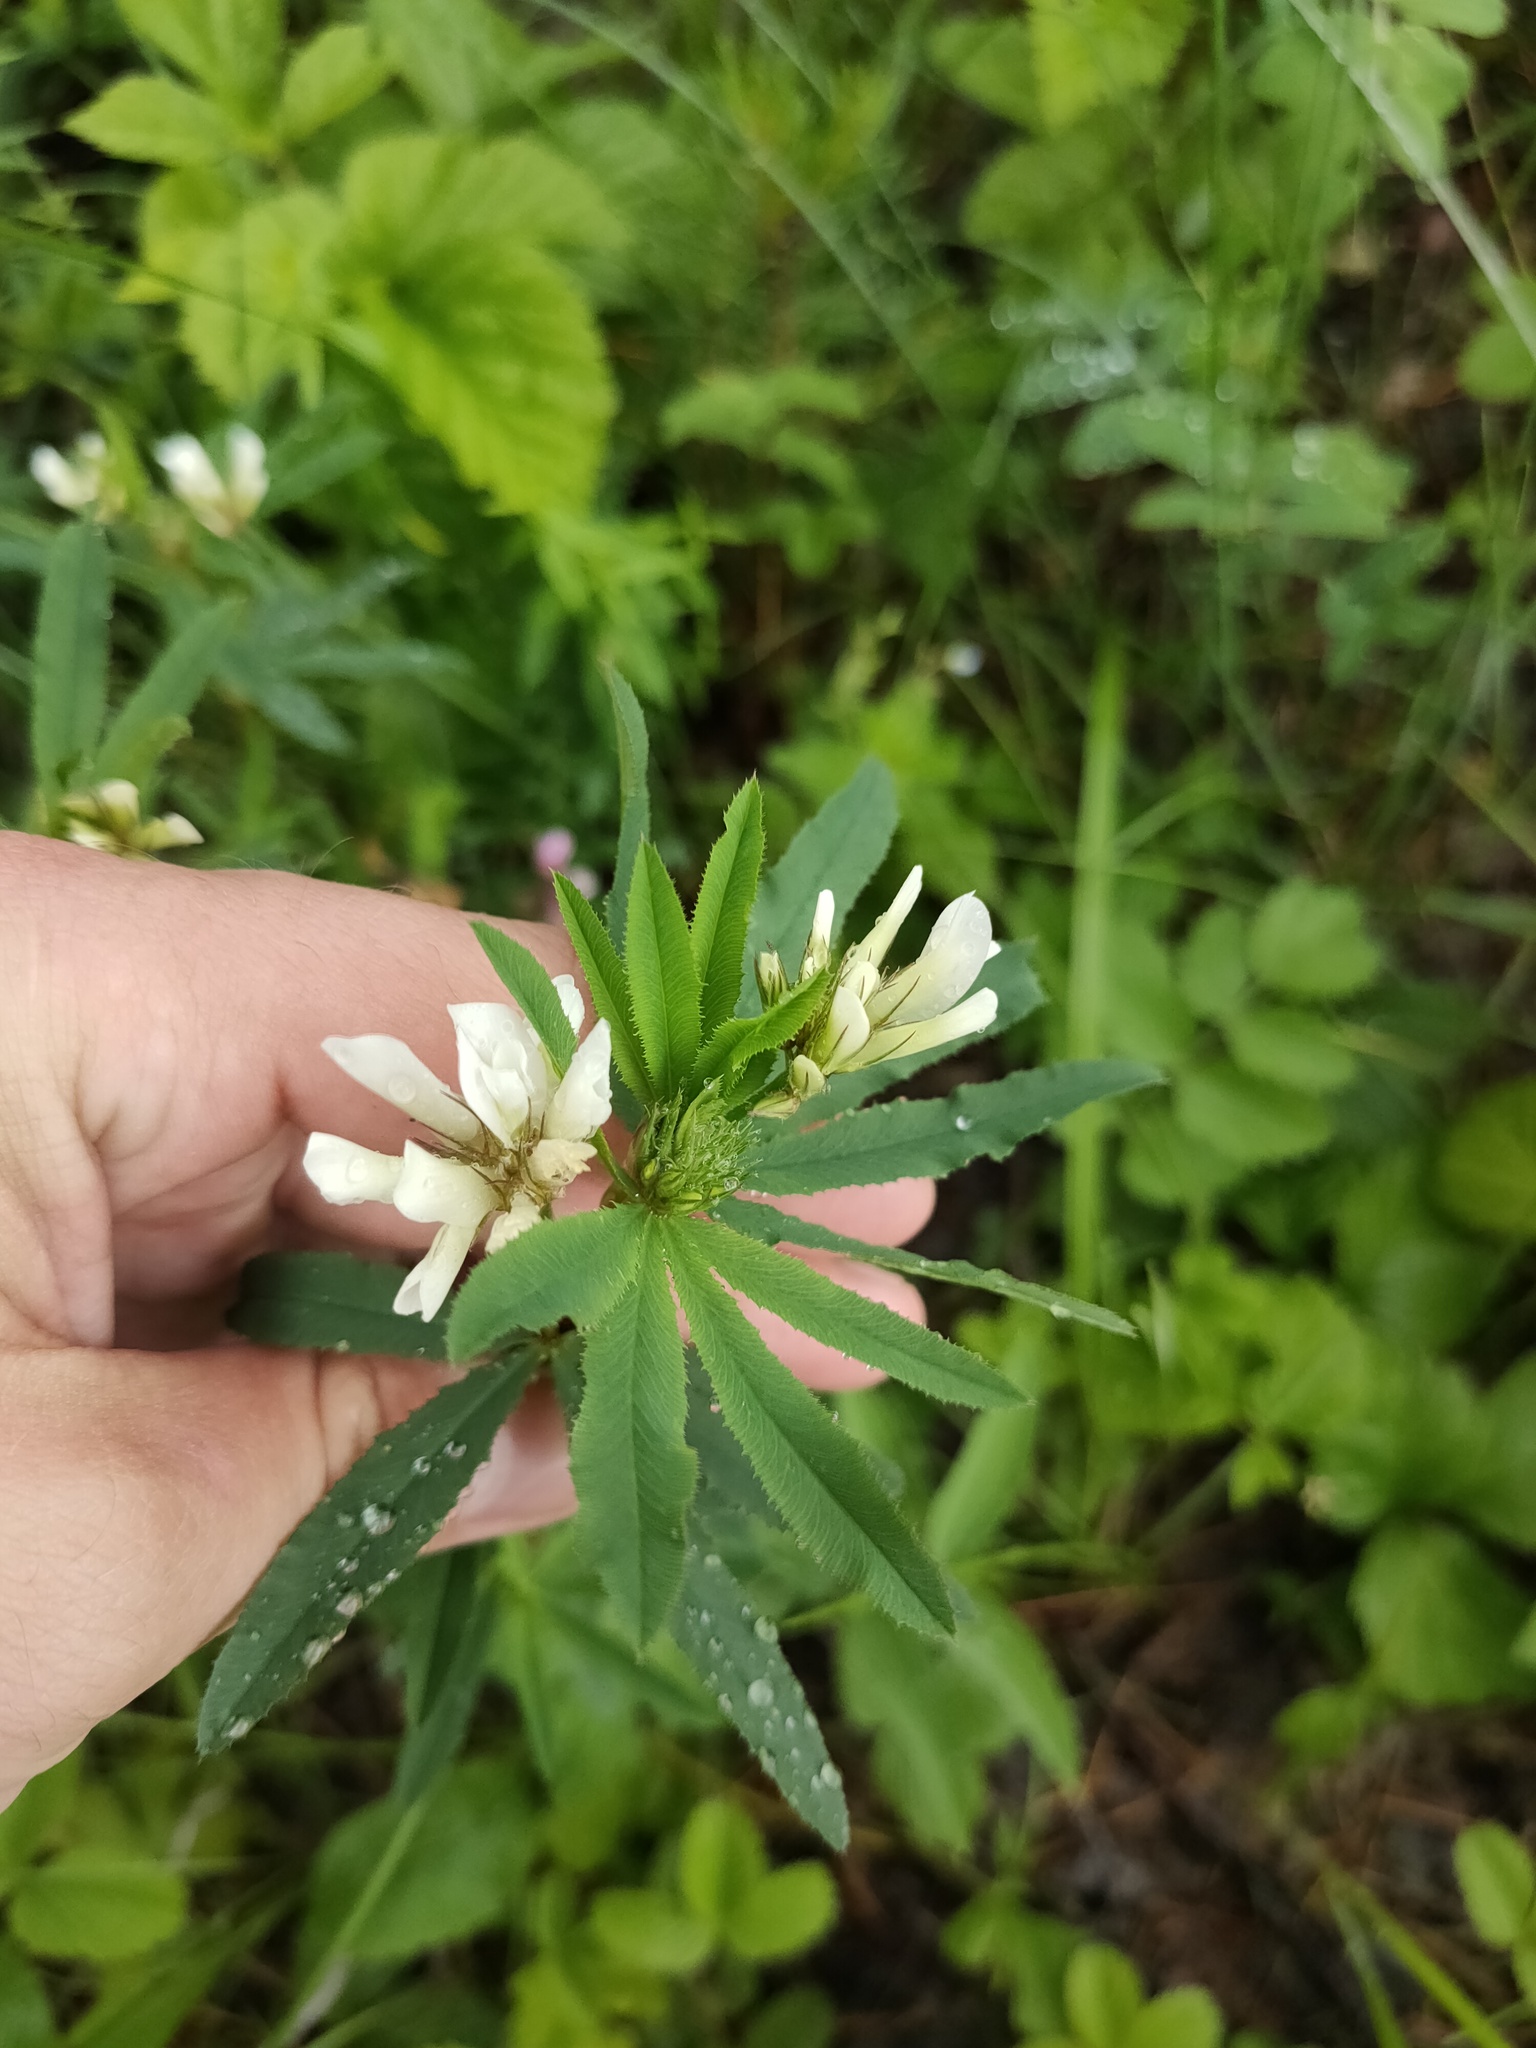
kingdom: Plantae
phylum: Tracheophyta
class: Magnoliopsida
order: Fabales
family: Fabaceae
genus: Trifolium
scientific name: Trifolium lupinaster
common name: Lupine clover
